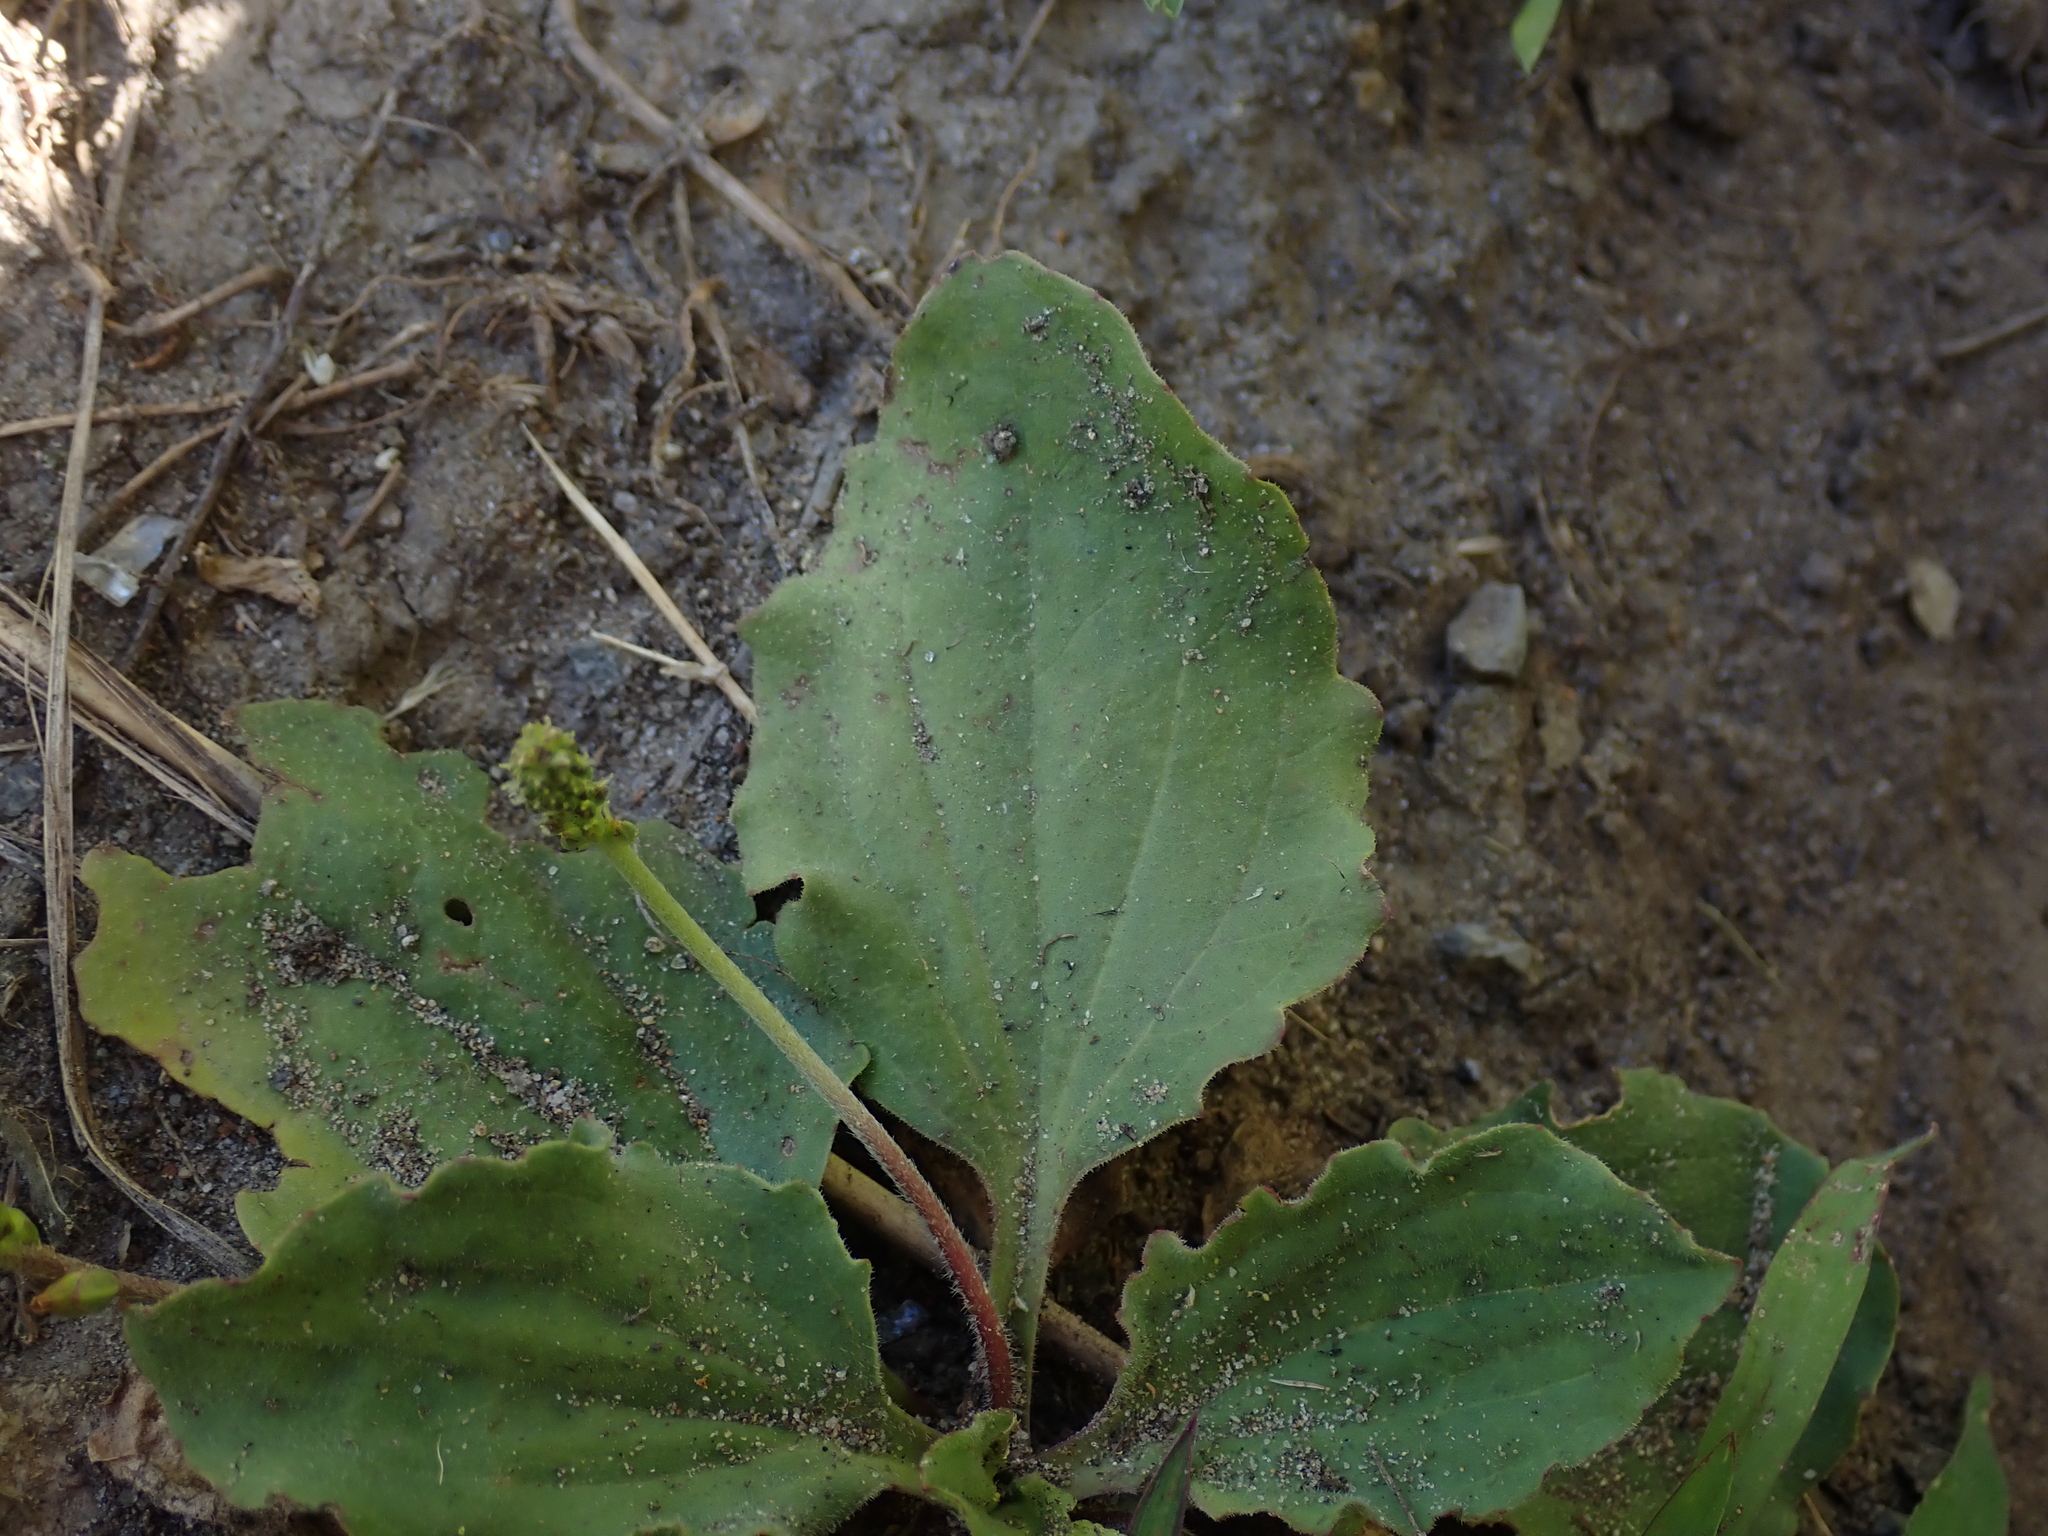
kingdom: Plantae
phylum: Tracheophyta
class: Magnoliopsida
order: Lamiales
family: Plantaginaceae
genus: Plantago
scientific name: Plantago major
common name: Common plantain
